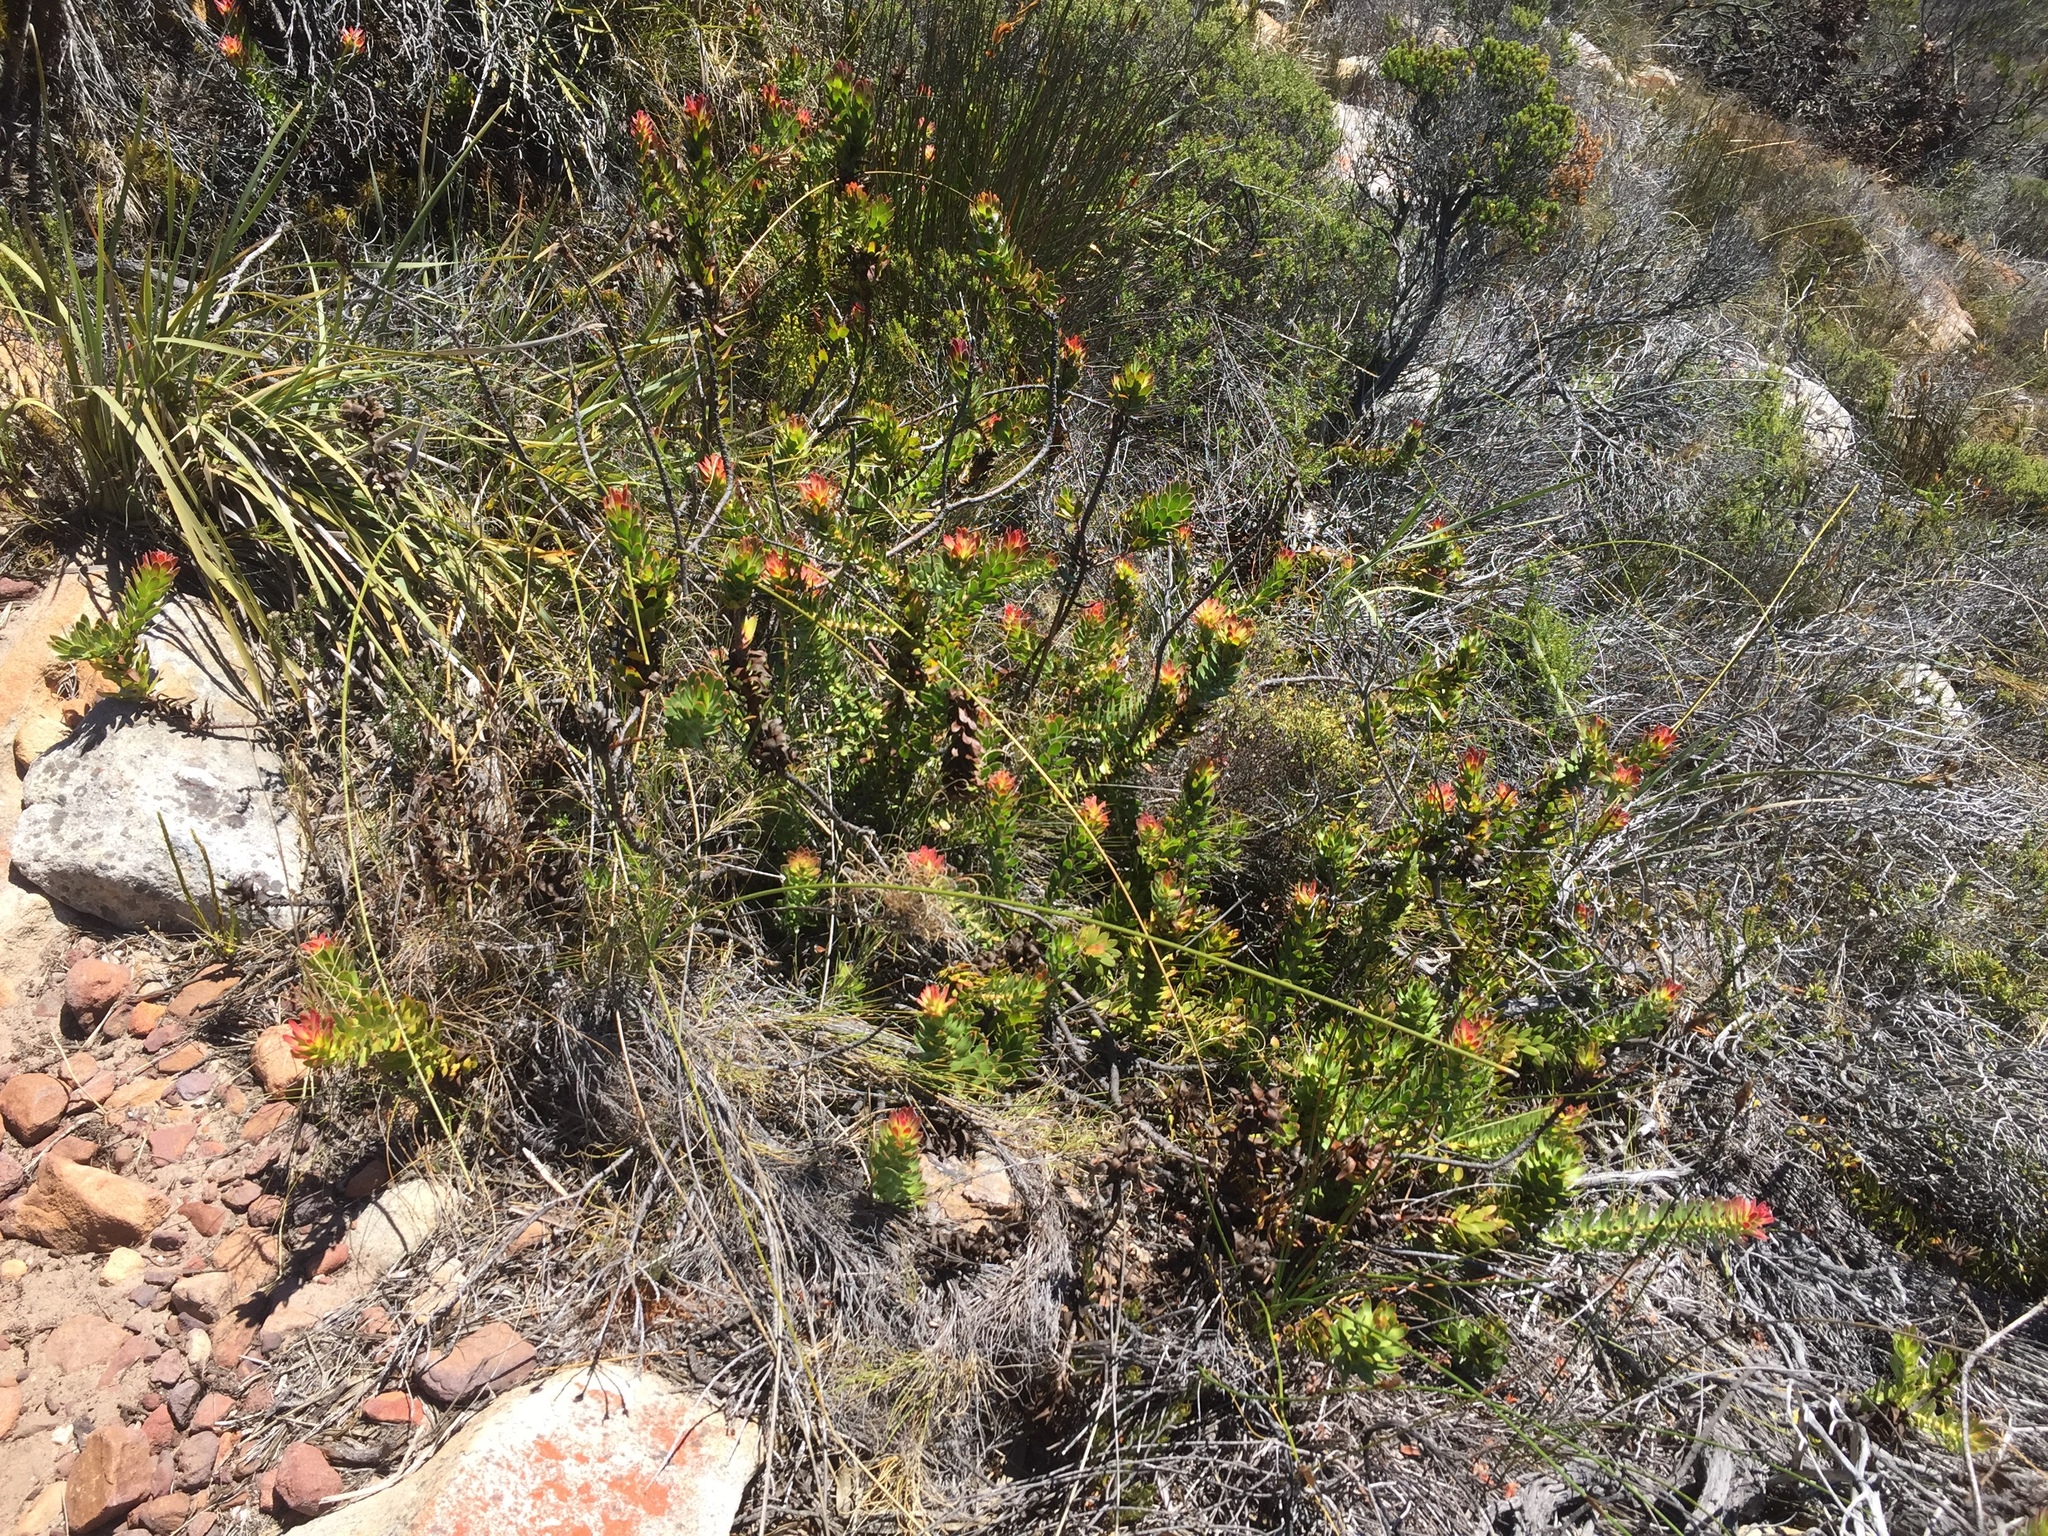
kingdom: Plantae
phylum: Tracheophyta
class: Magnoliopsida
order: Proteales
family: Proteaceae
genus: Mimetes
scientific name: Mimetes cucullatus
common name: Common pagoda
